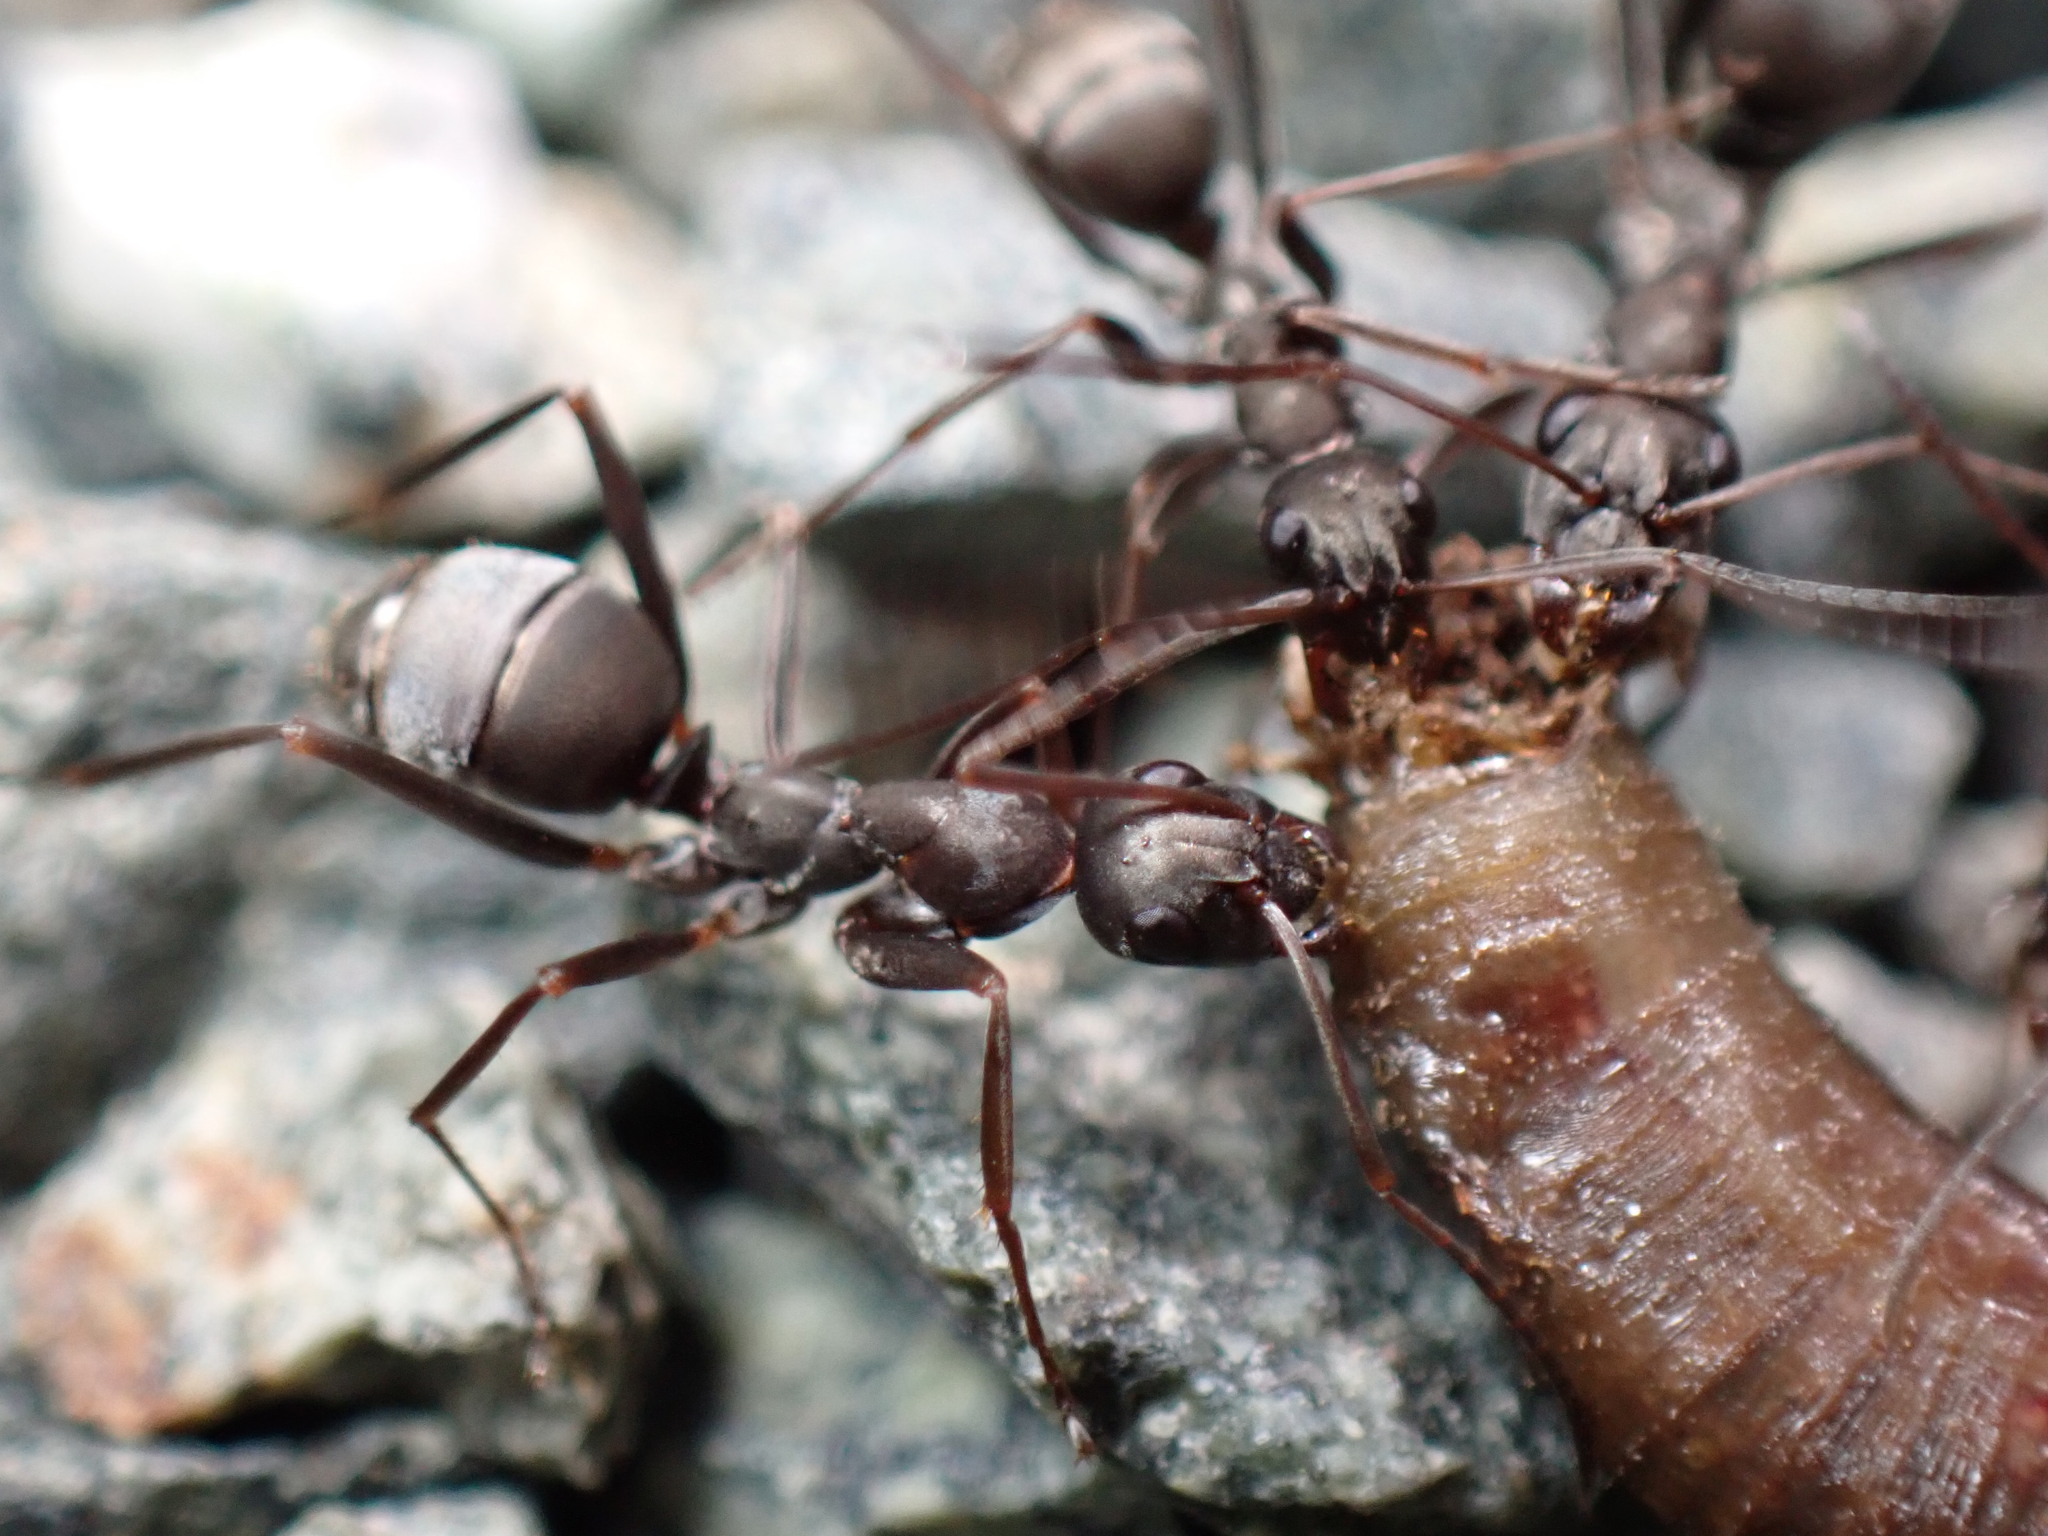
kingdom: Animalia
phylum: Arthropoda
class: Insecta
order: Hymenoptera
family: Formicidae
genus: Formica
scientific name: Formica japonica
